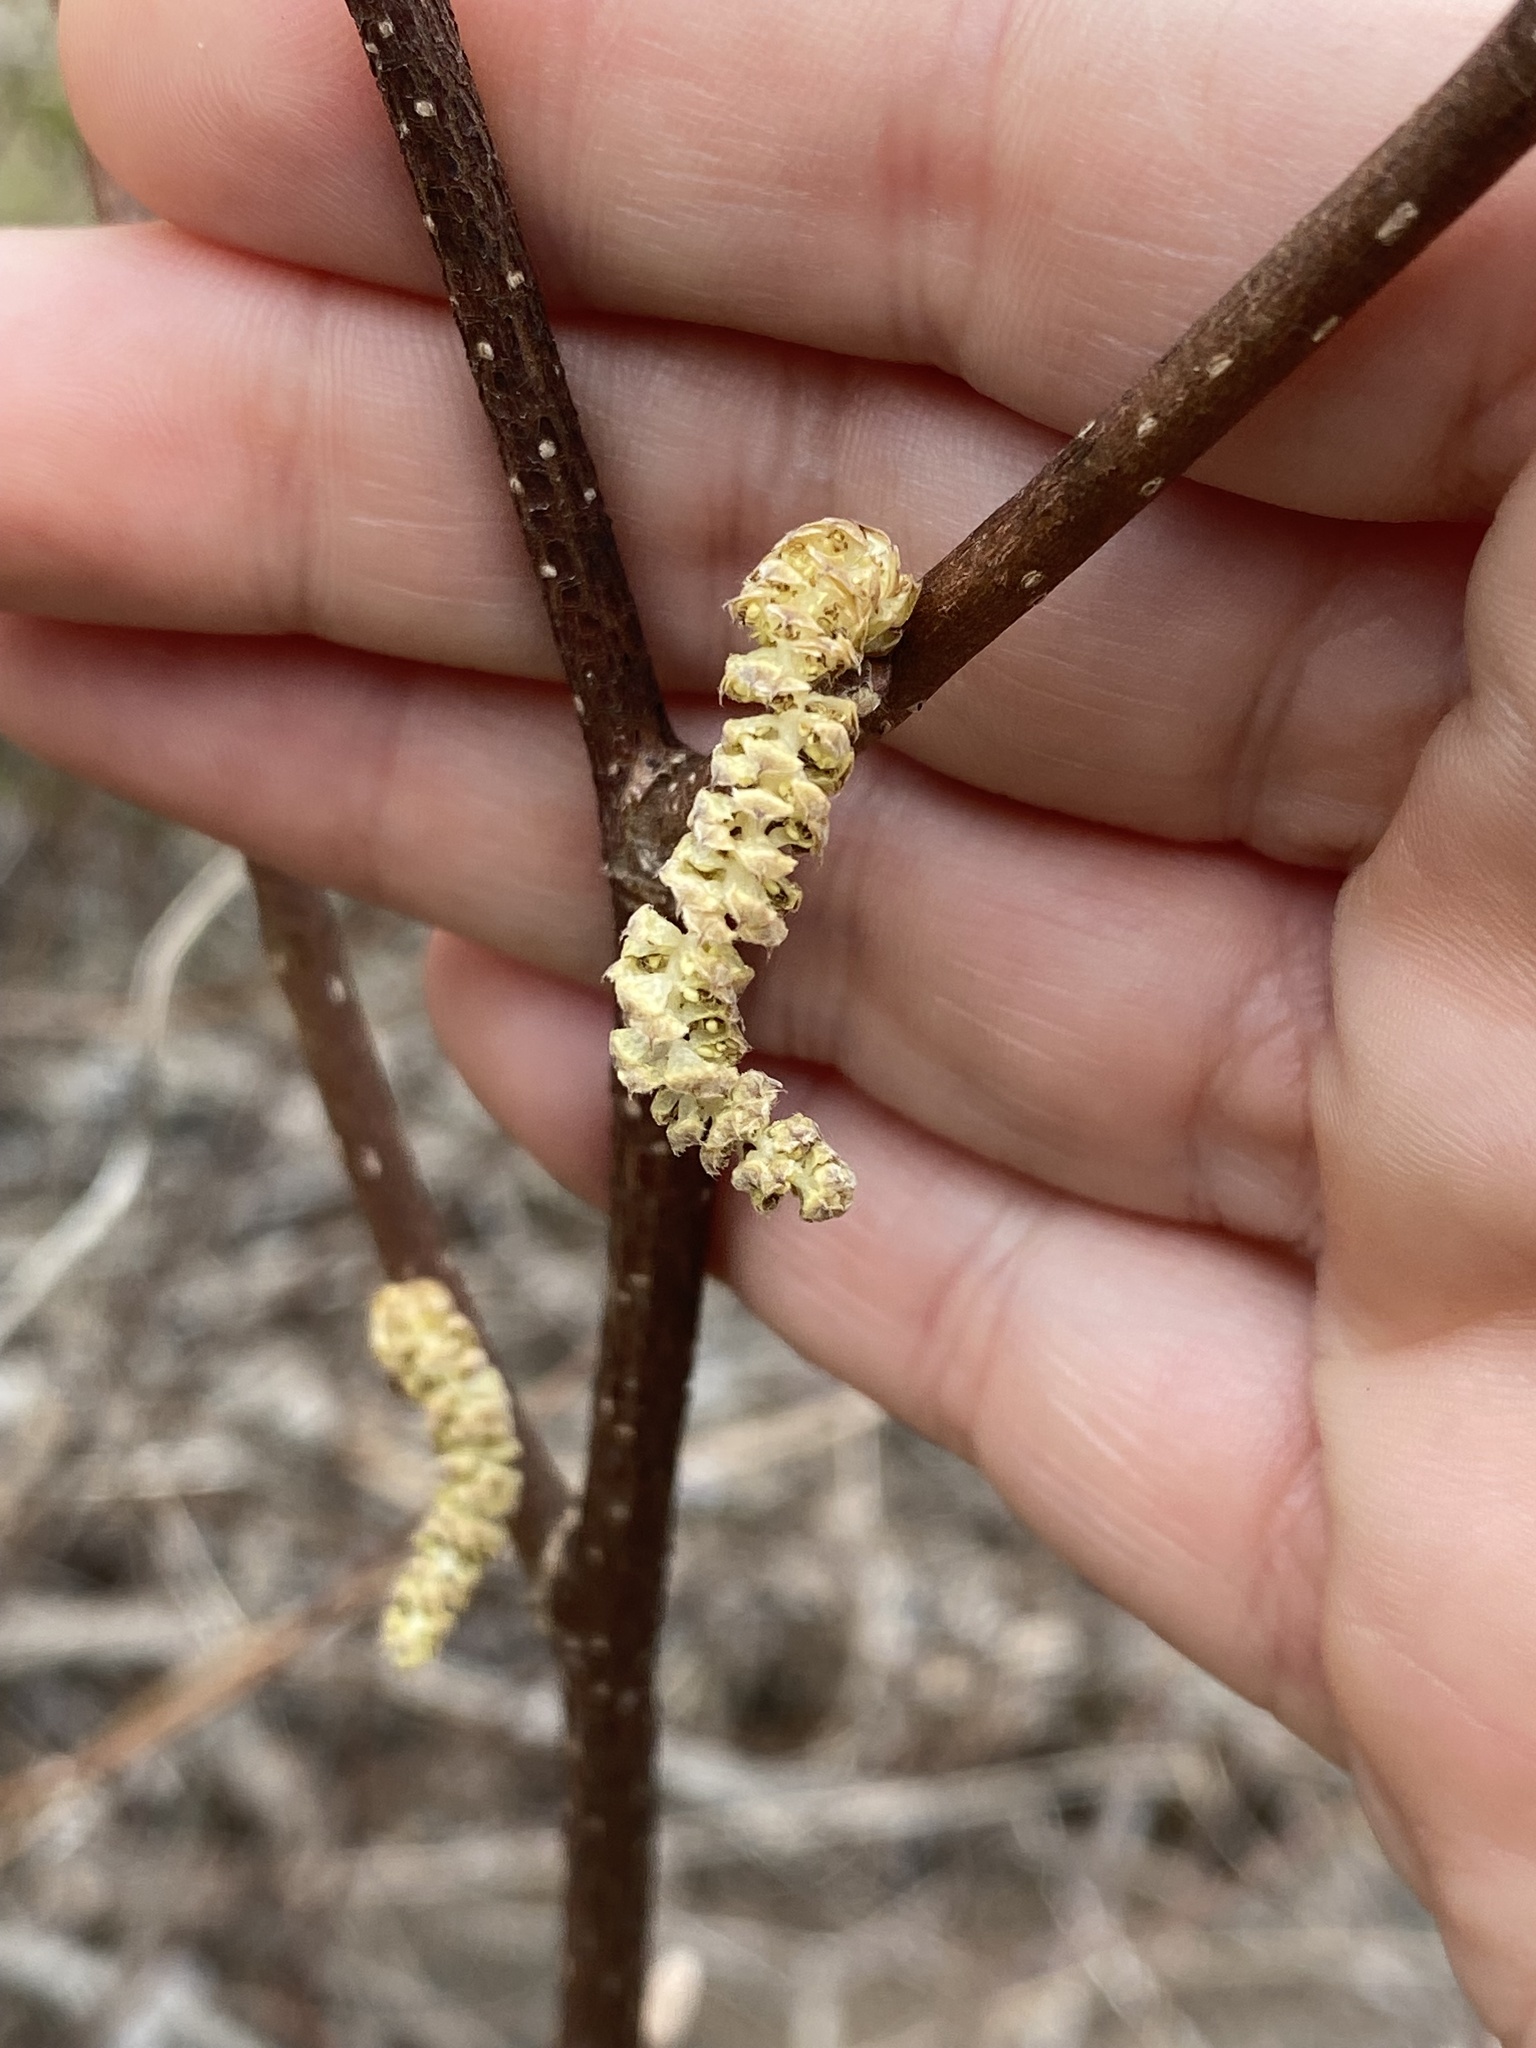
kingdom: Plantae
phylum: Tracheophyta
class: Magnoliopsida
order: Fagales
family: Betulaceae
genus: Corylus
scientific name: Corylus cornuta
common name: Beaked hazel
